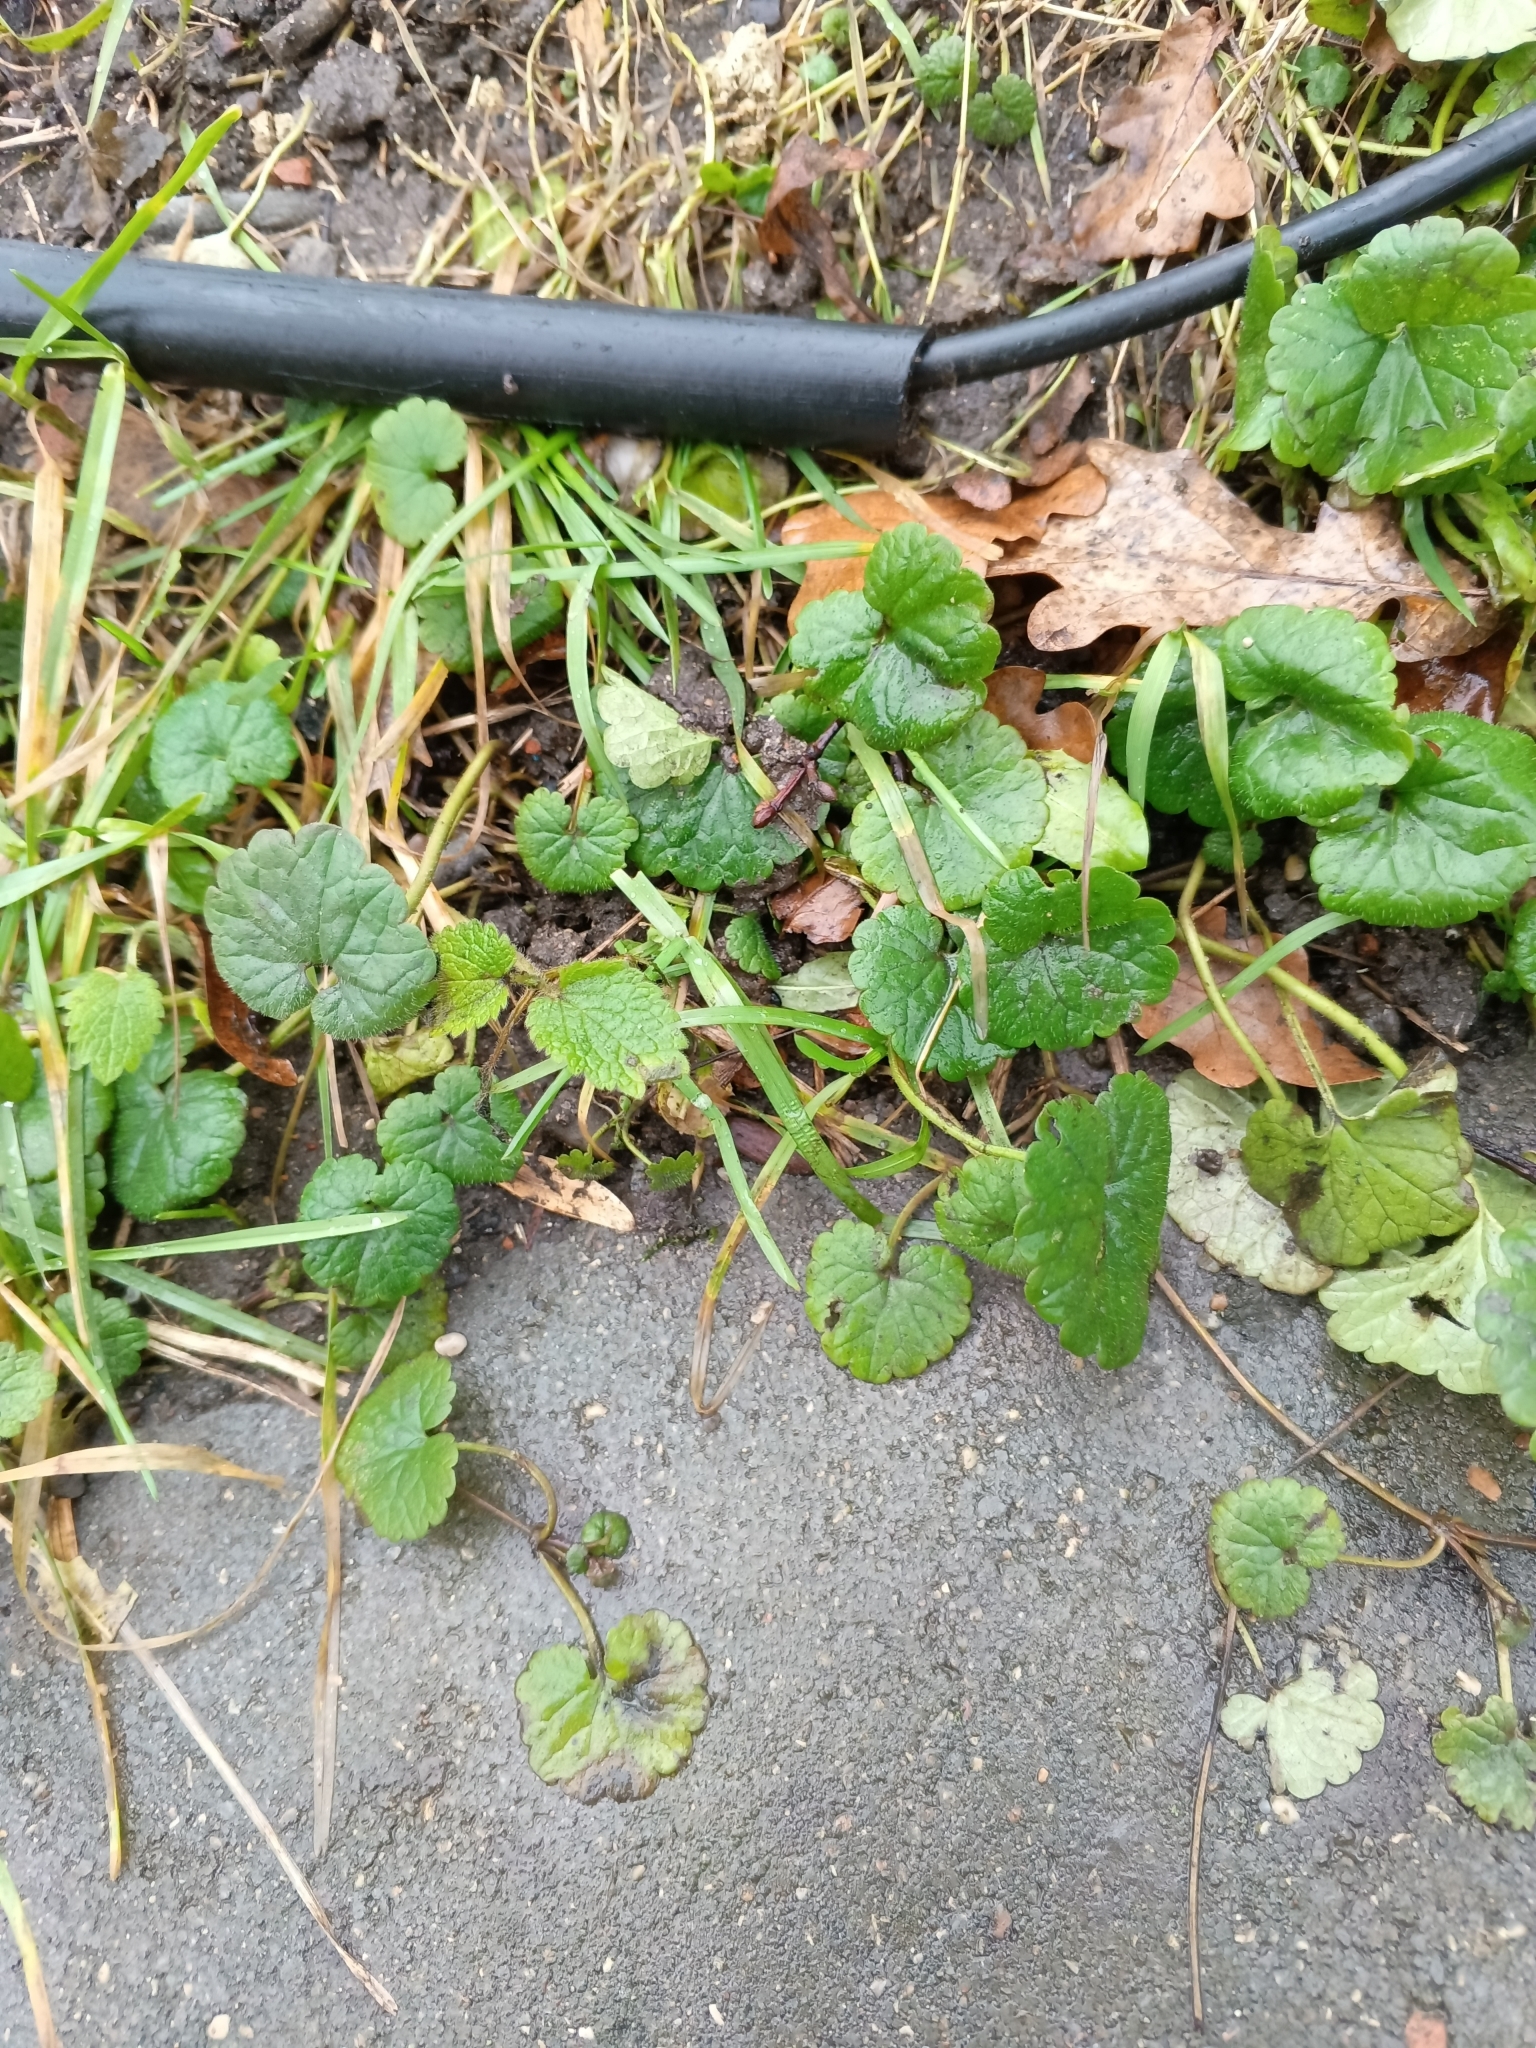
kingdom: Plantae
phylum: Tracheophyta
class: Magnoliopsida
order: Lamiales
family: Lamiaceae
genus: Glechoma
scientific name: Glechoma hederacea
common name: Ground ivy
